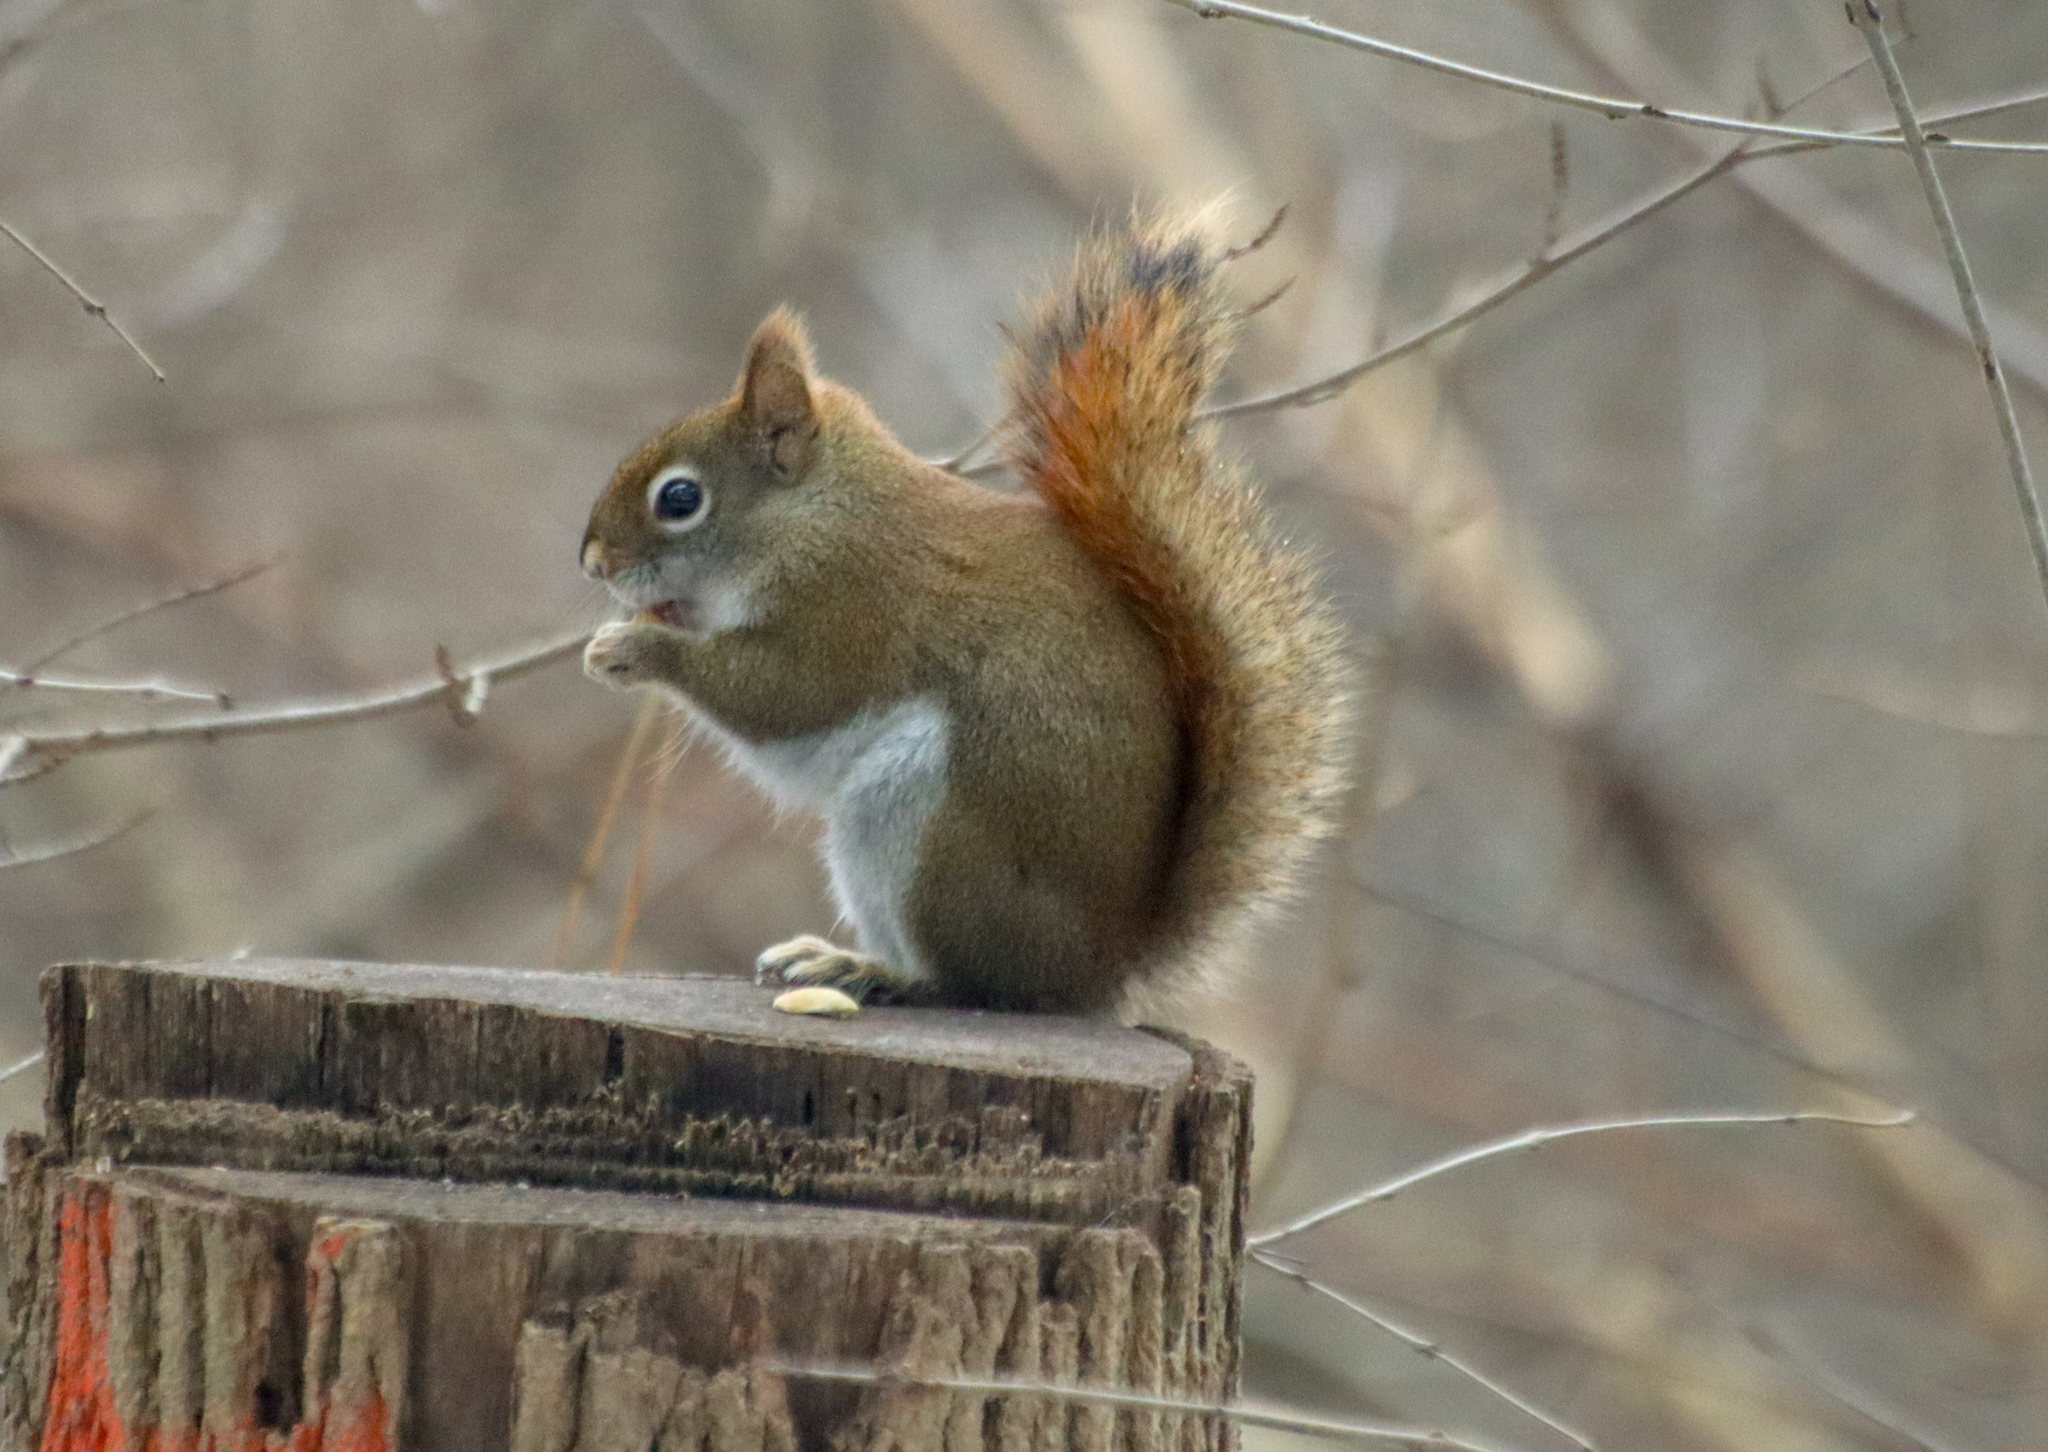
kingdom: Animalia
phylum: Chordata
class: Mammalia
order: Rodentia
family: Sciuridae
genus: Tamiasciurus
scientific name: Tamiasciurus hudsonicus
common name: Red squirrel
